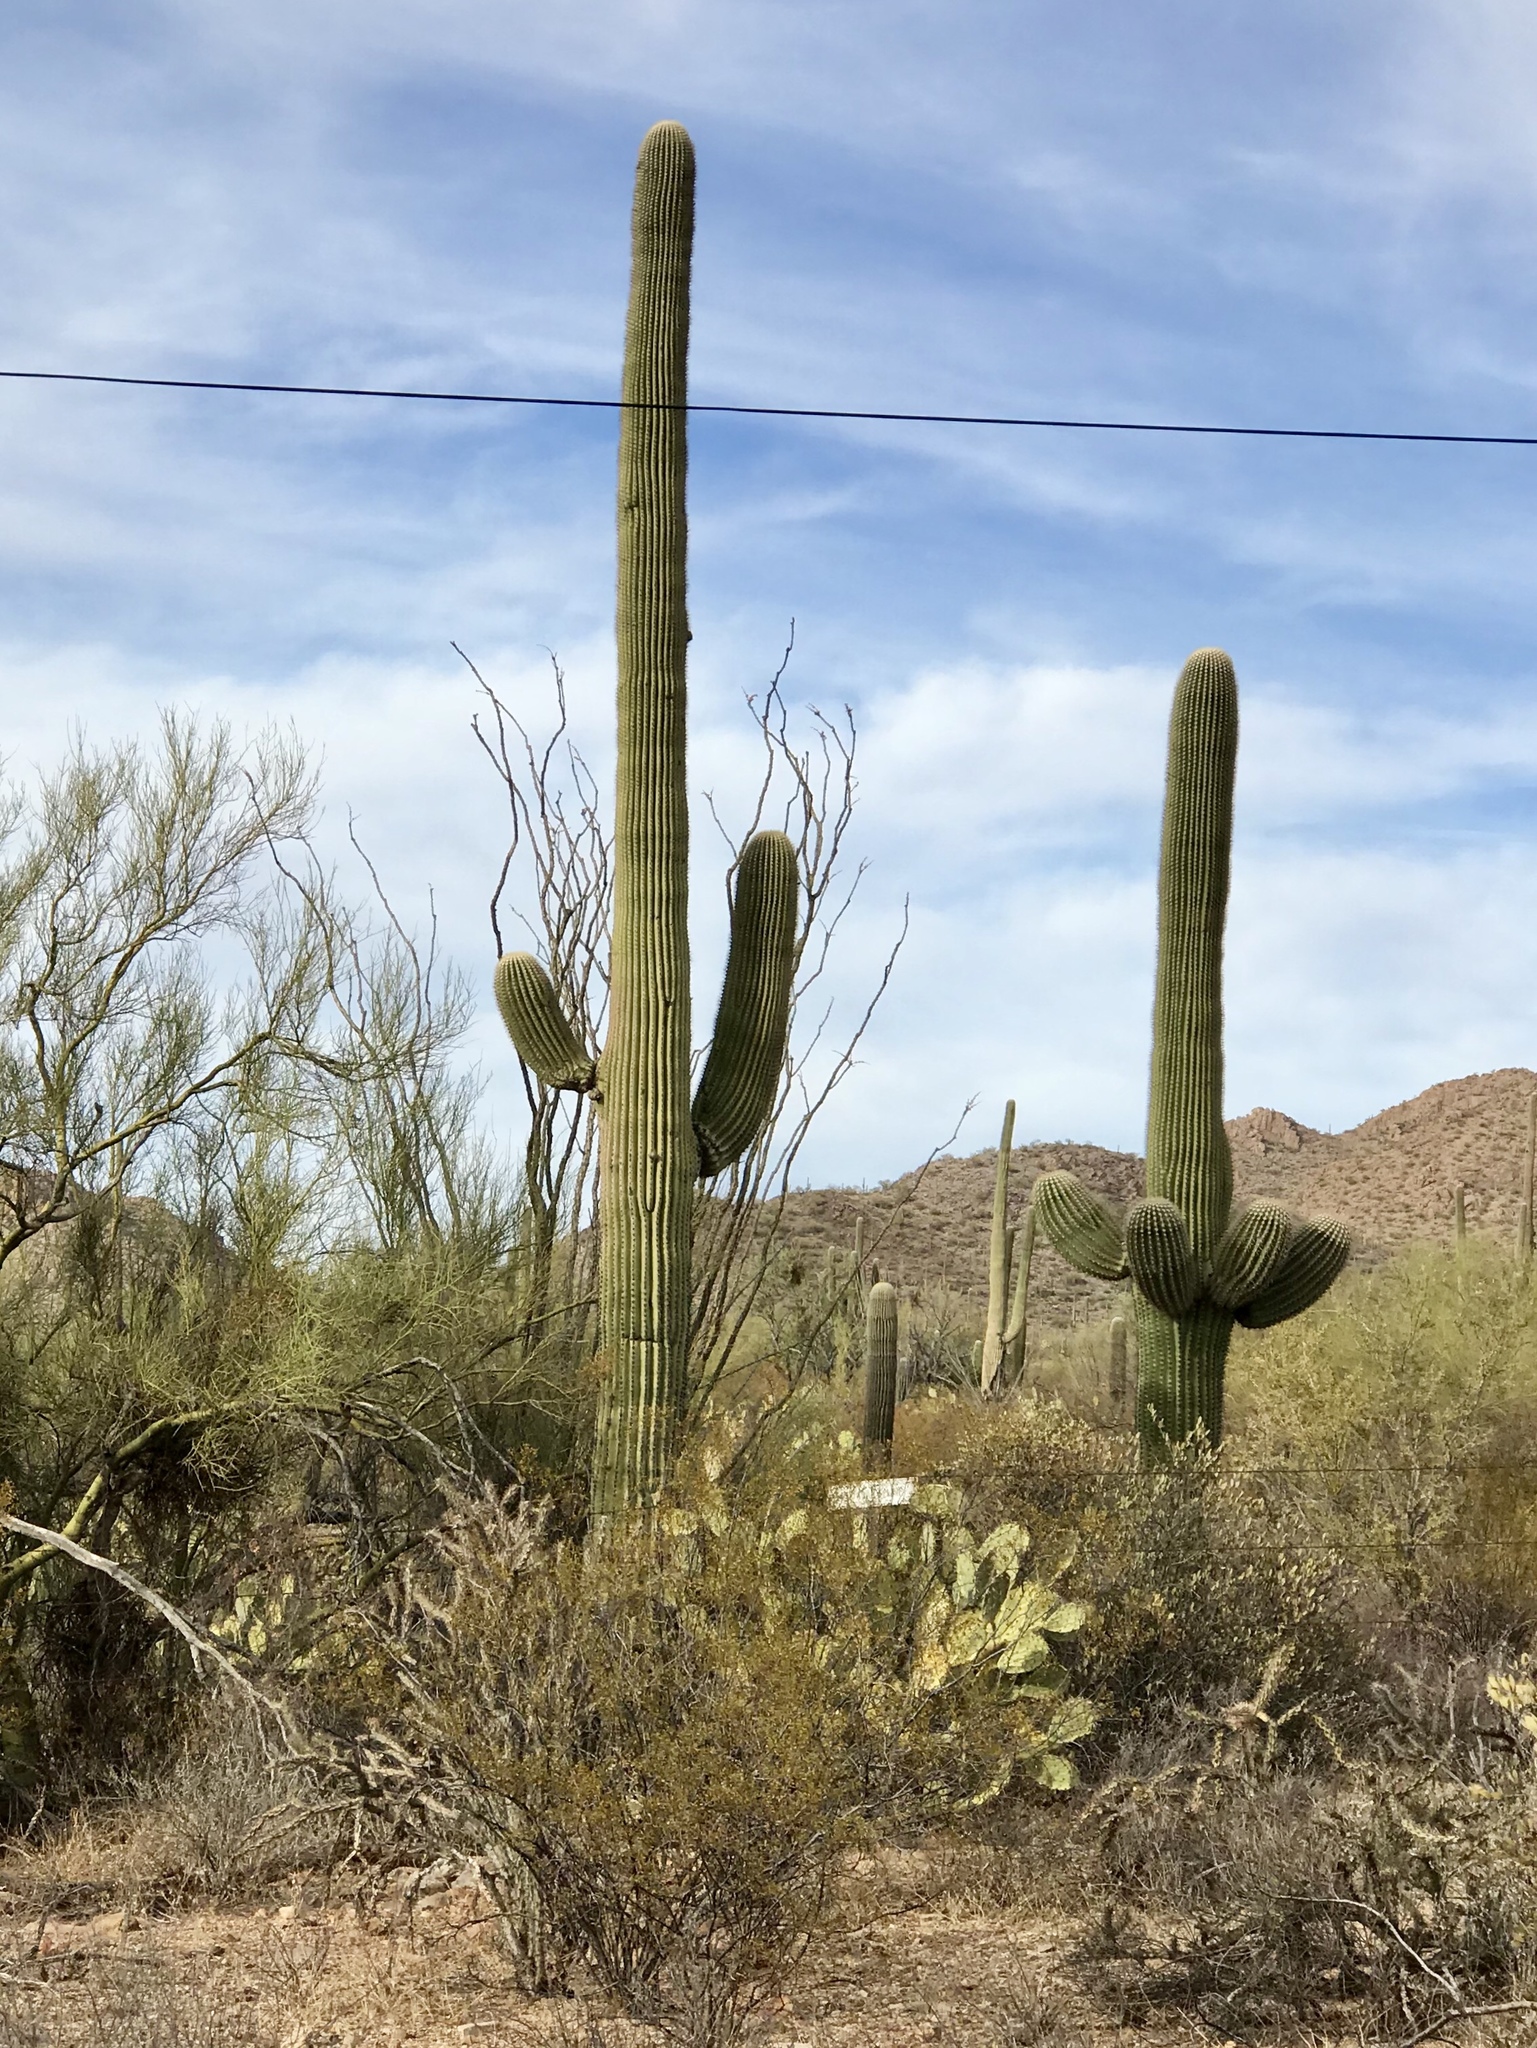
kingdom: Plantae
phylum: Tracheophyta
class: Magnoliopsida
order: Caryophyllales
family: Cactaceae
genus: Carnegiea
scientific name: Carnegiea gigantea
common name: Saguaro
